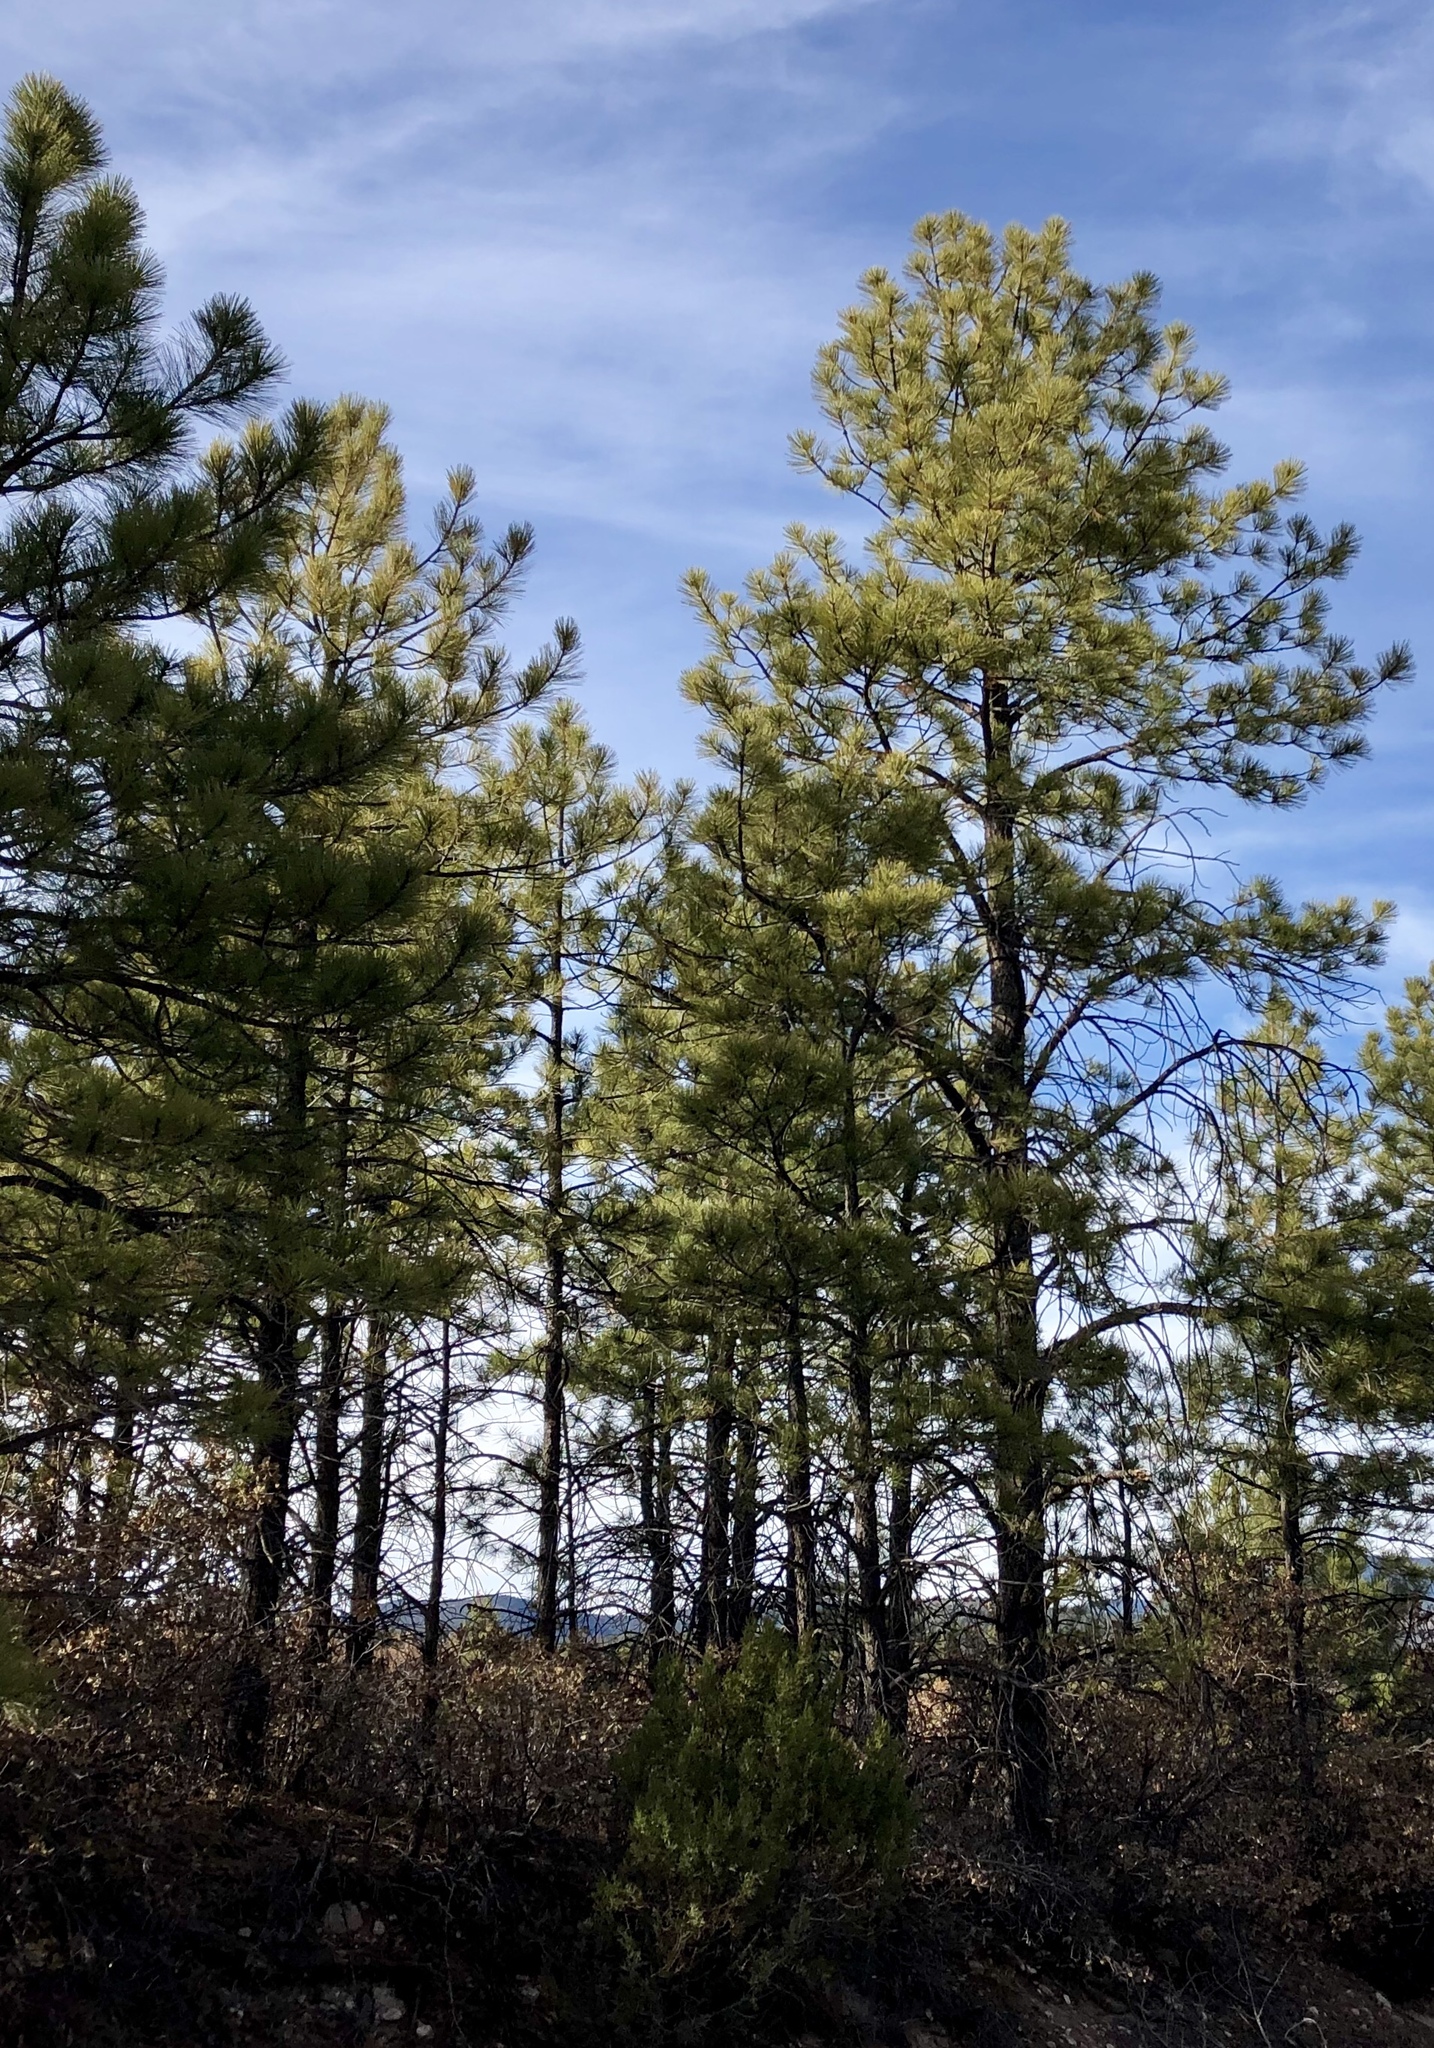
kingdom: Plantae
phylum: Tracheophyta
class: Pinopsida
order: Pinales
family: Pinaceae
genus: Pinus
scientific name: Pinus ponderosa
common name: Western yellow-pine
